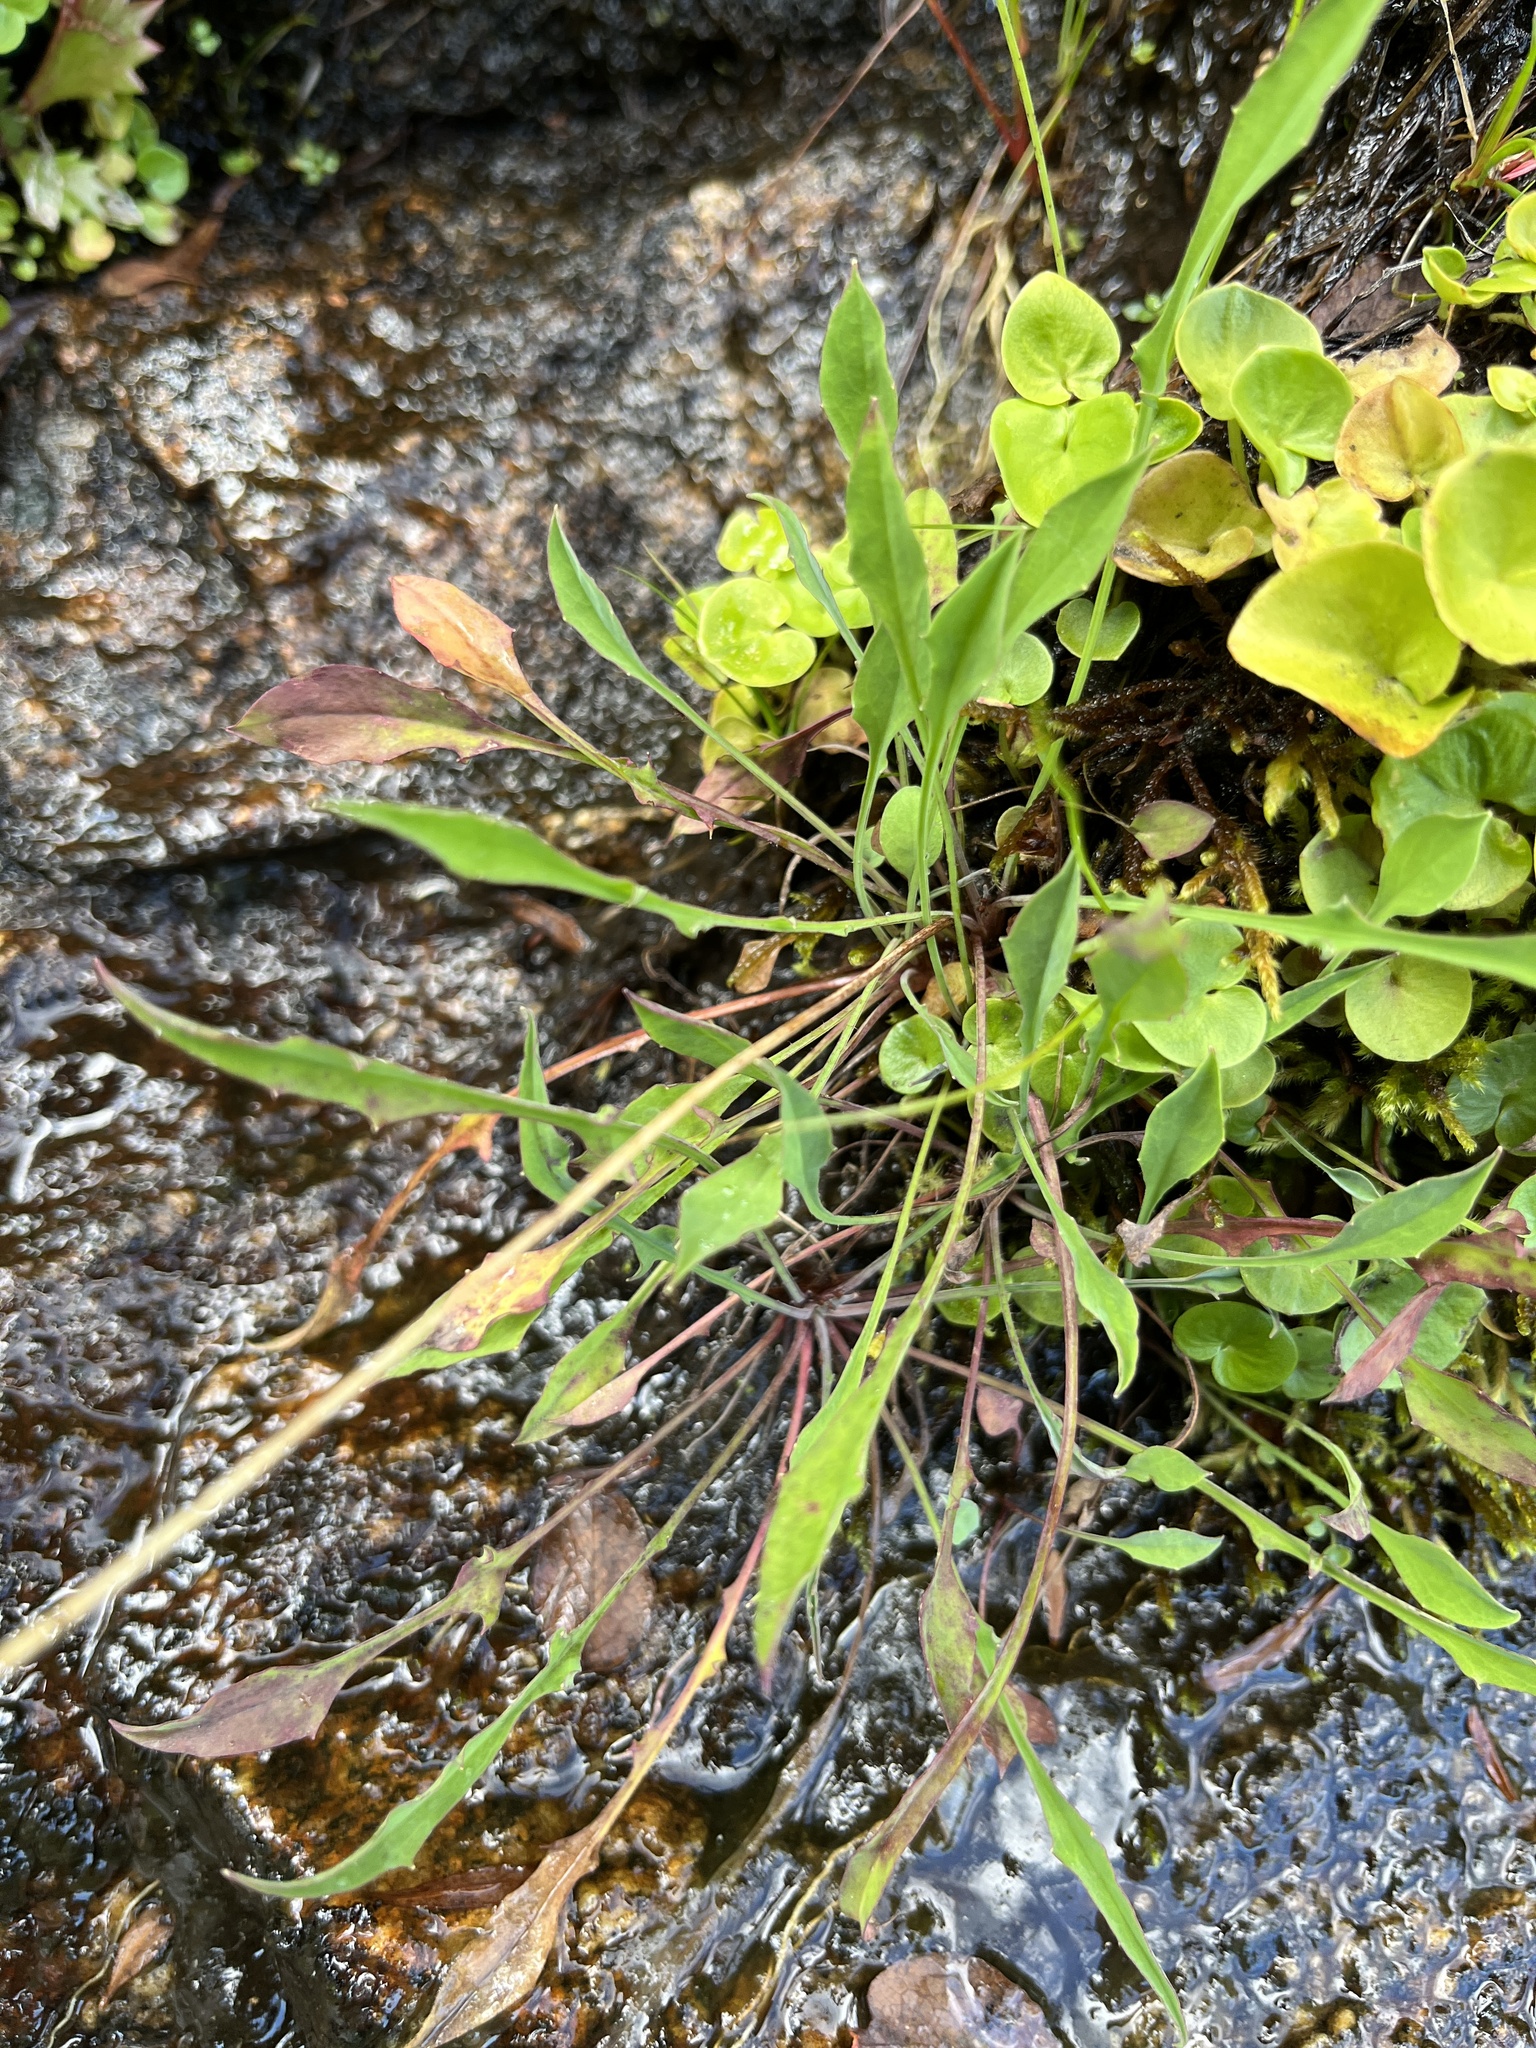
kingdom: Plantae
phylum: Tracheophyta
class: Magnoliopsida
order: Asterales
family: Asteraceae
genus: Krigia
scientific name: Krigia montana
